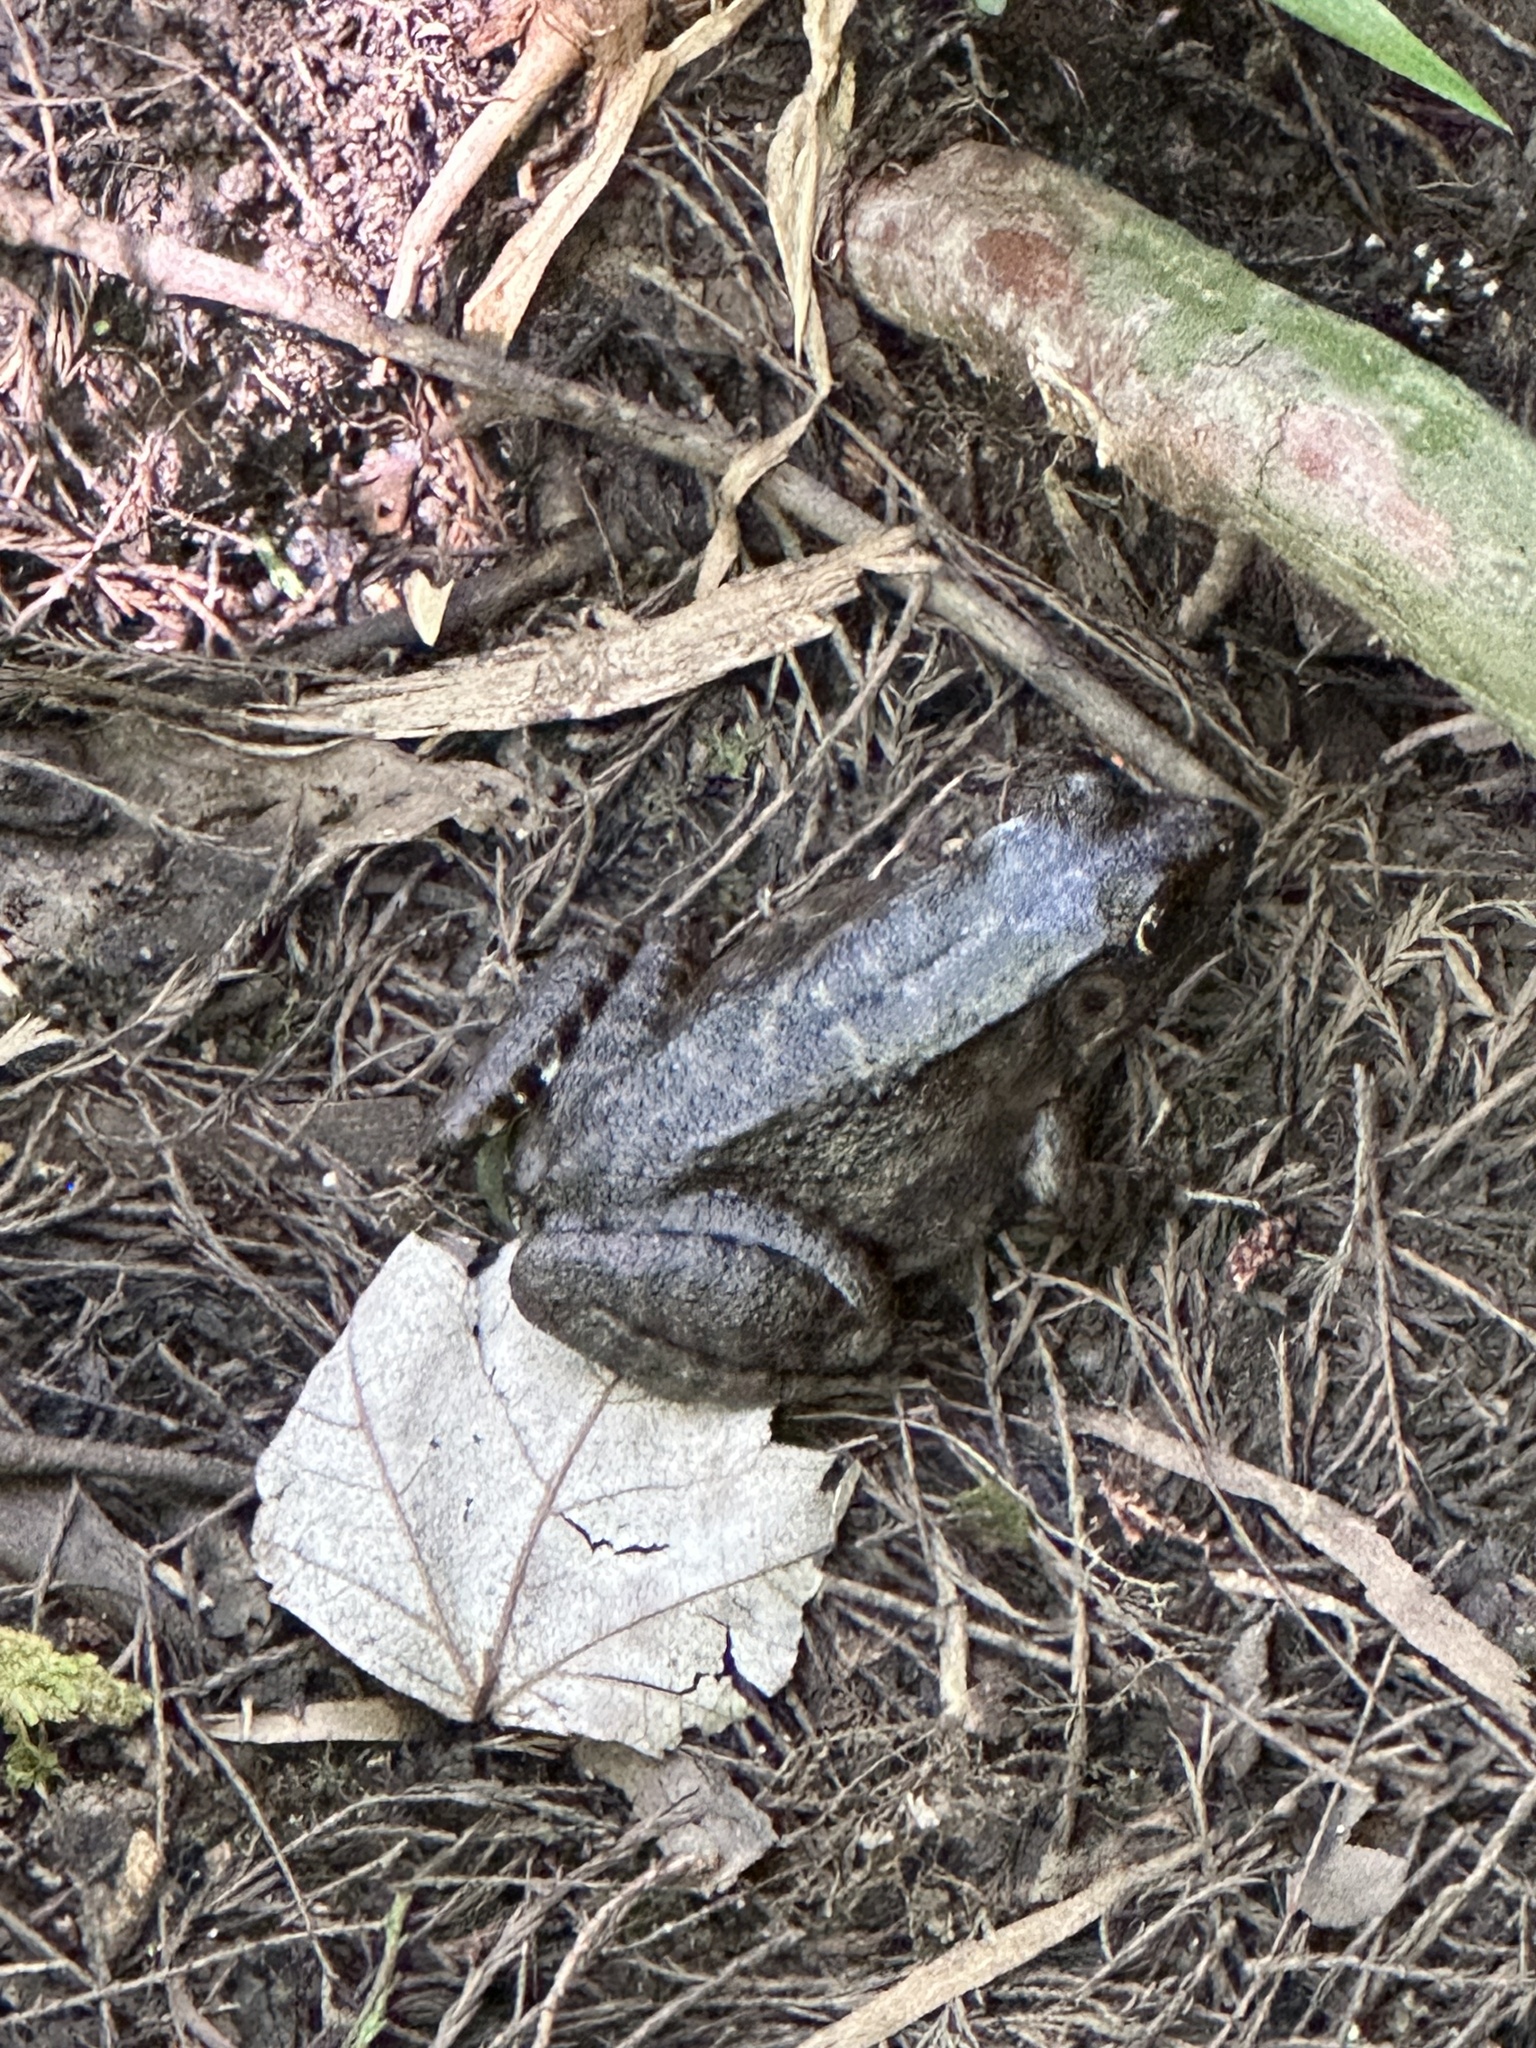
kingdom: Animalia
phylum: Chordata
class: Amphibia
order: Anura
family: Ranidae
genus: Lithobates
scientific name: Lithobates clamitans
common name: Green frog
